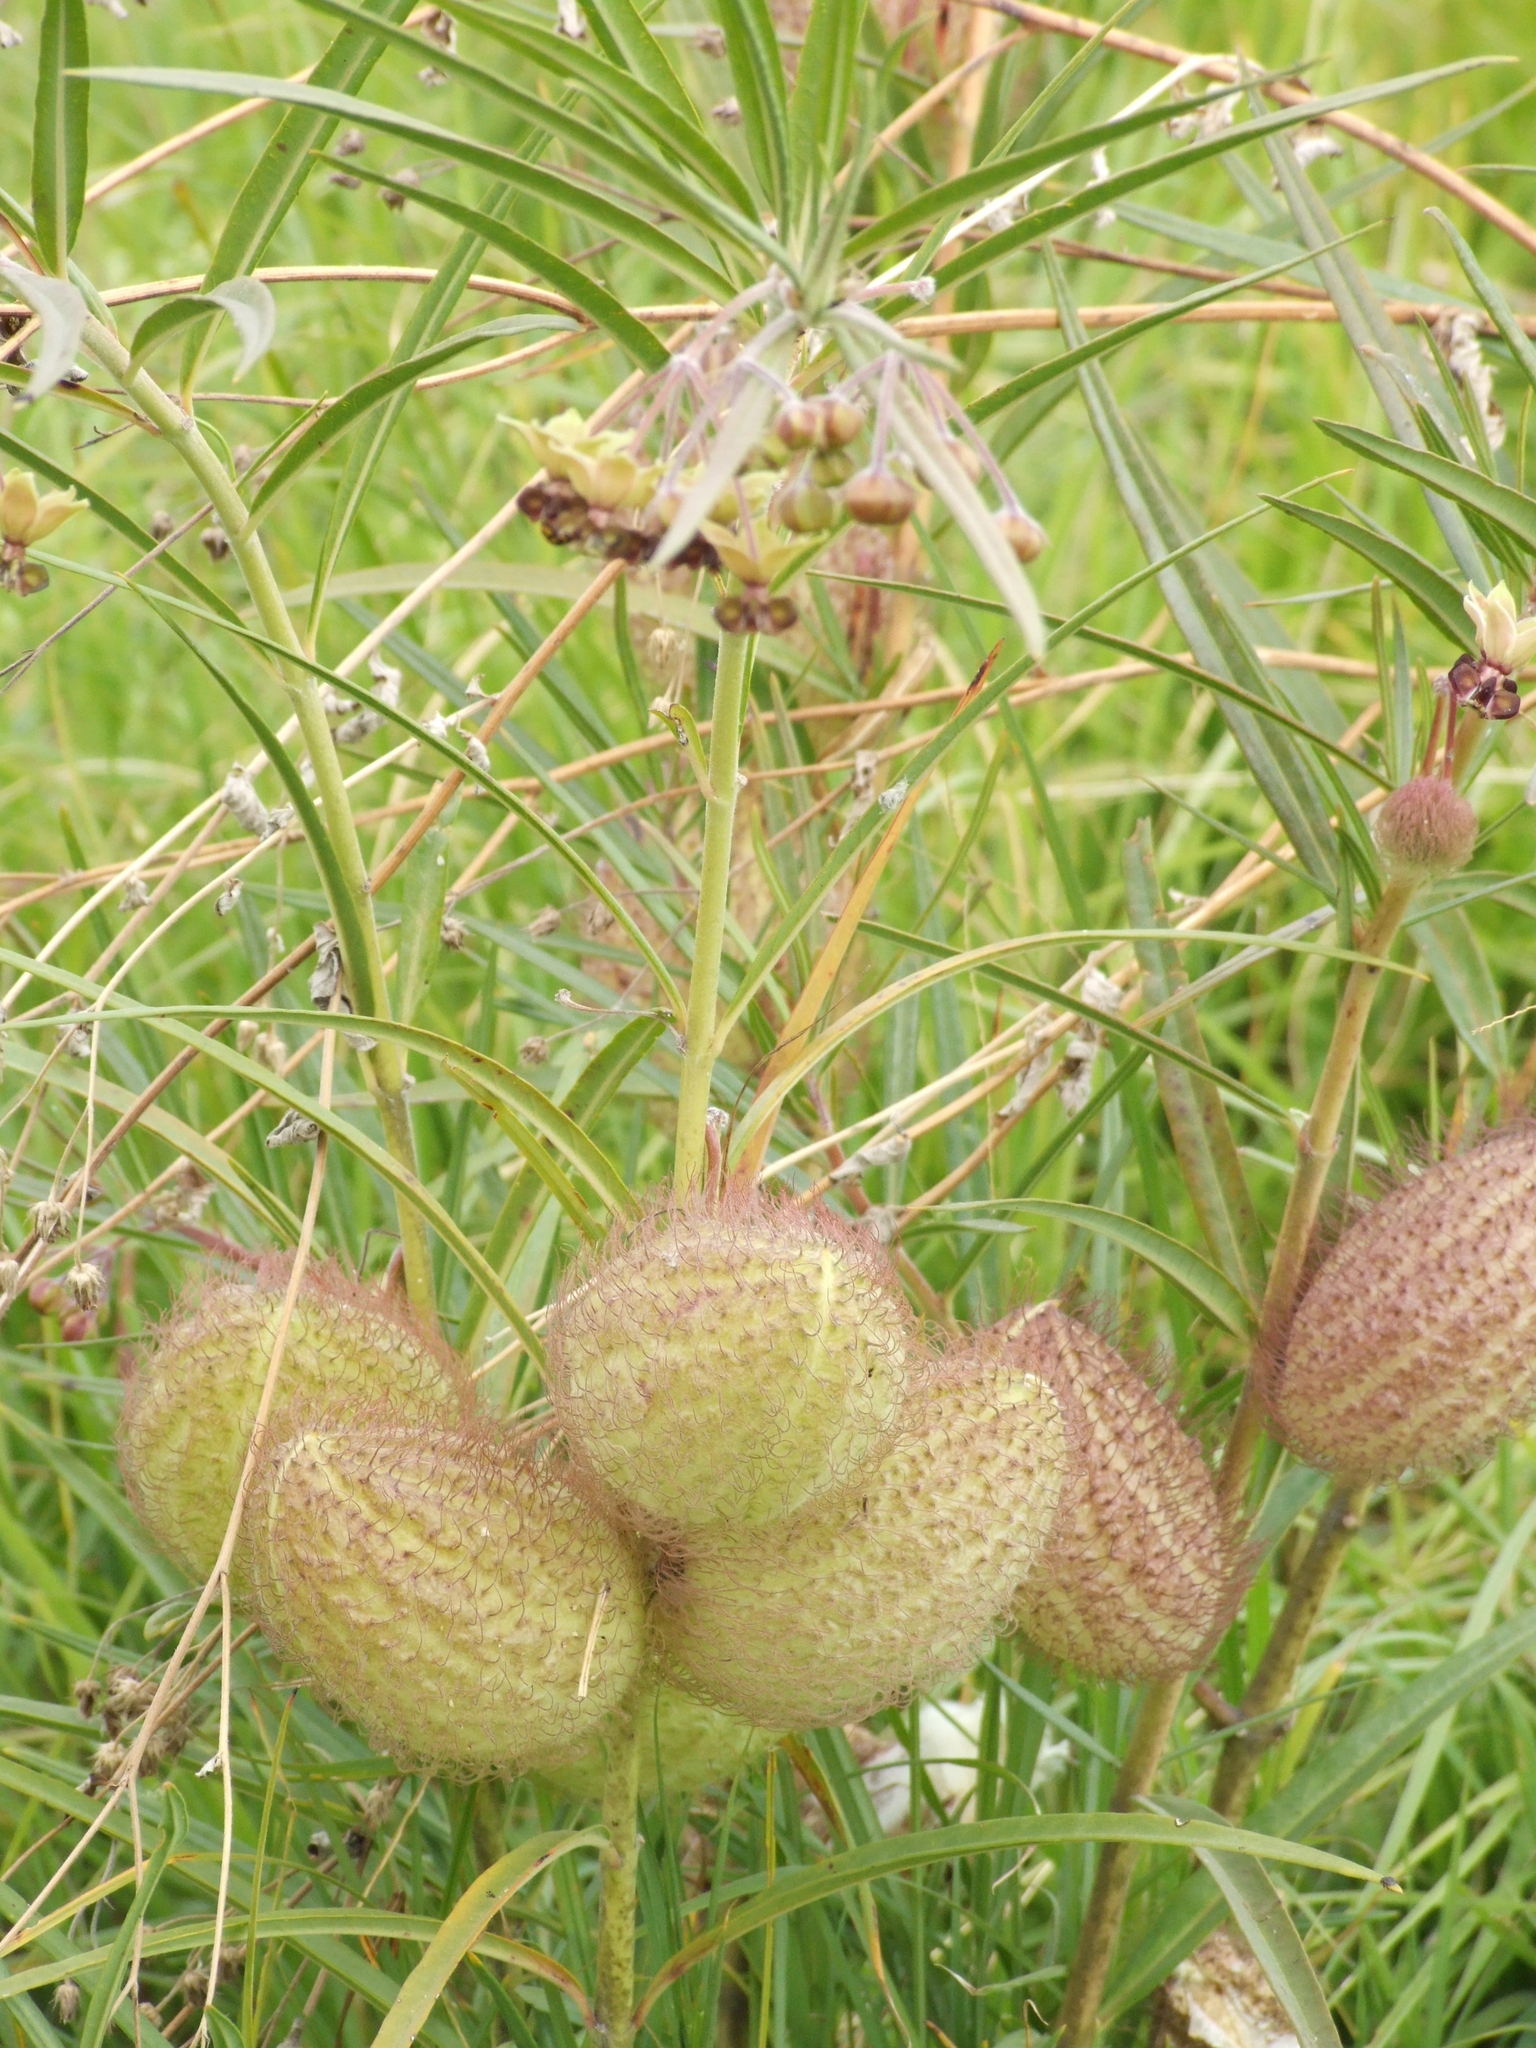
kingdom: Plantae
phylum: Tracheophyta
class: Magnoliopsida
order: Gentianales
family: Apocynaceae
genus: Gomphocarpus
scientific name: Gomphocarpus kaessneri
